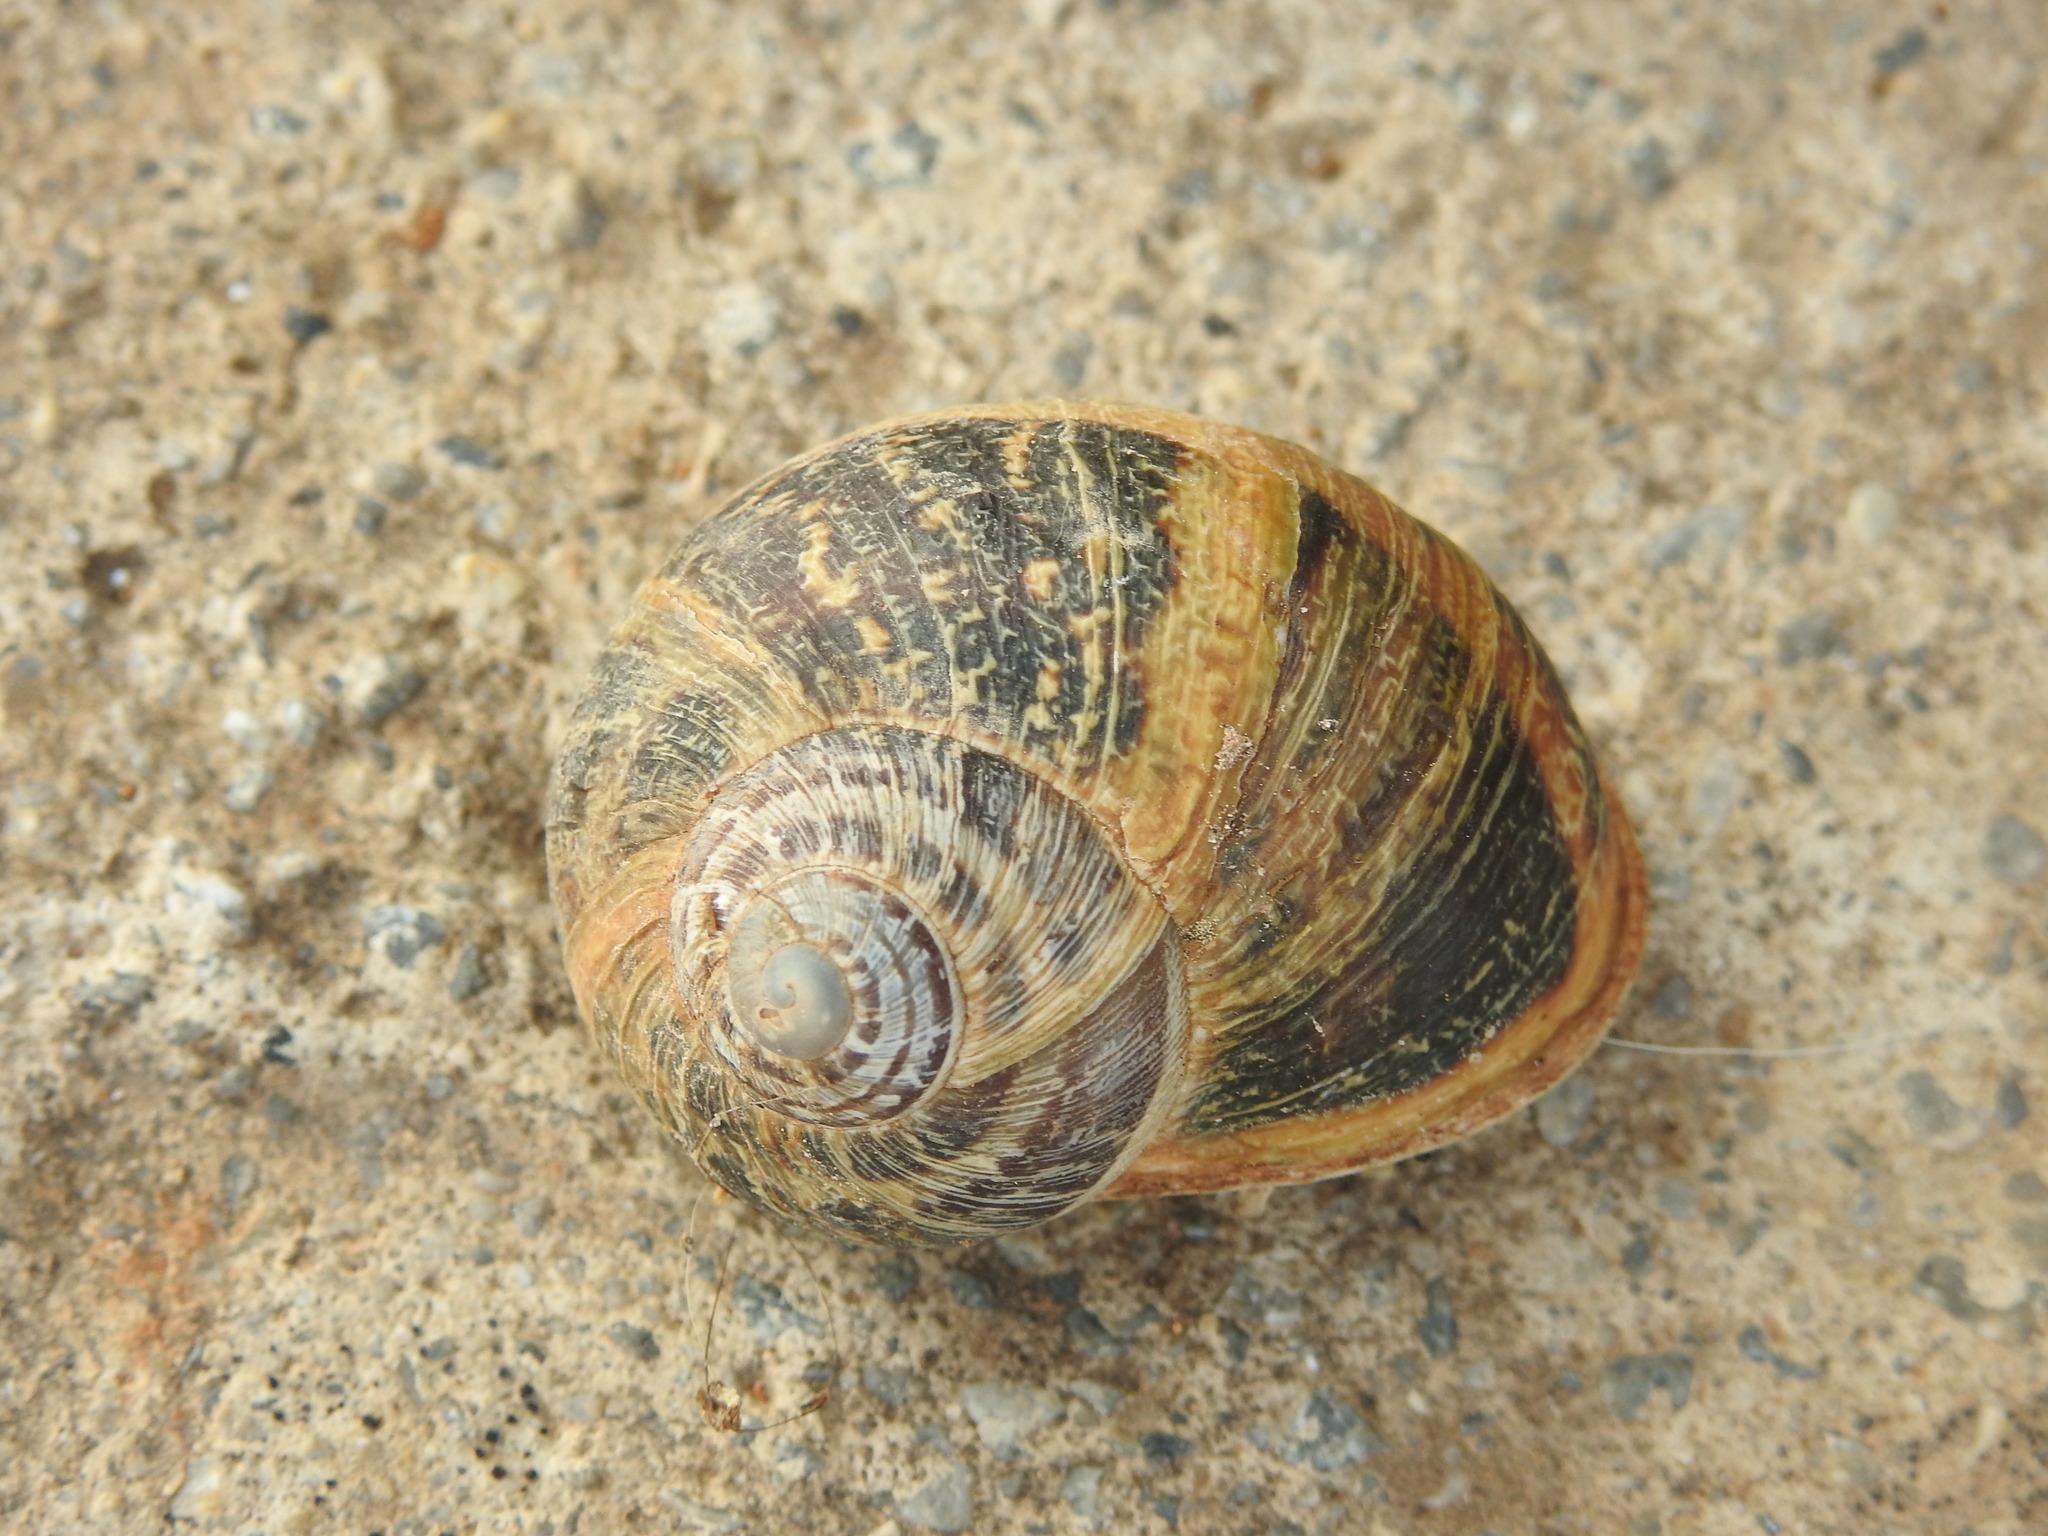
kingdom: Animalia
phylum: Mollusca
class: Gastropoda
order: Stylommatophora
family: Helicidae
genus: Cornu
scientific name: Cornu aspersum
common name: Brown garden snail
